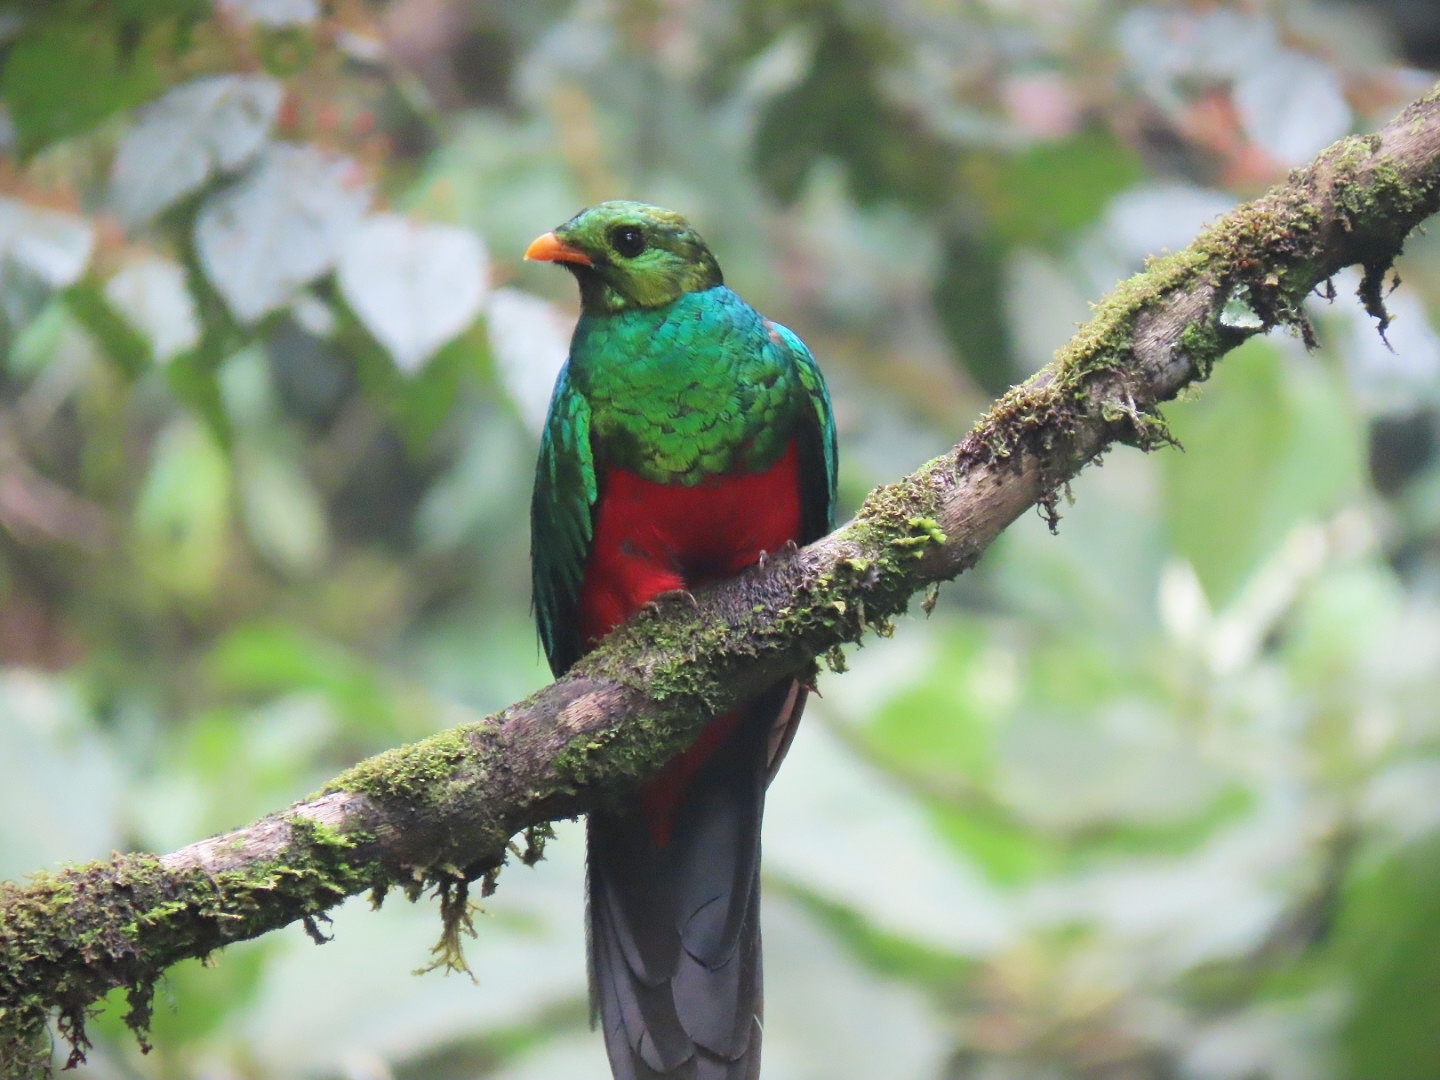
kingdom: Animalia
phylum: Chordata
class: Aves
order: Trogoniformes
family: Trogonidae
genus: Pharomachrus
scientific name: Pharomachrus auriceps
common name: Golden-headed quetzal
